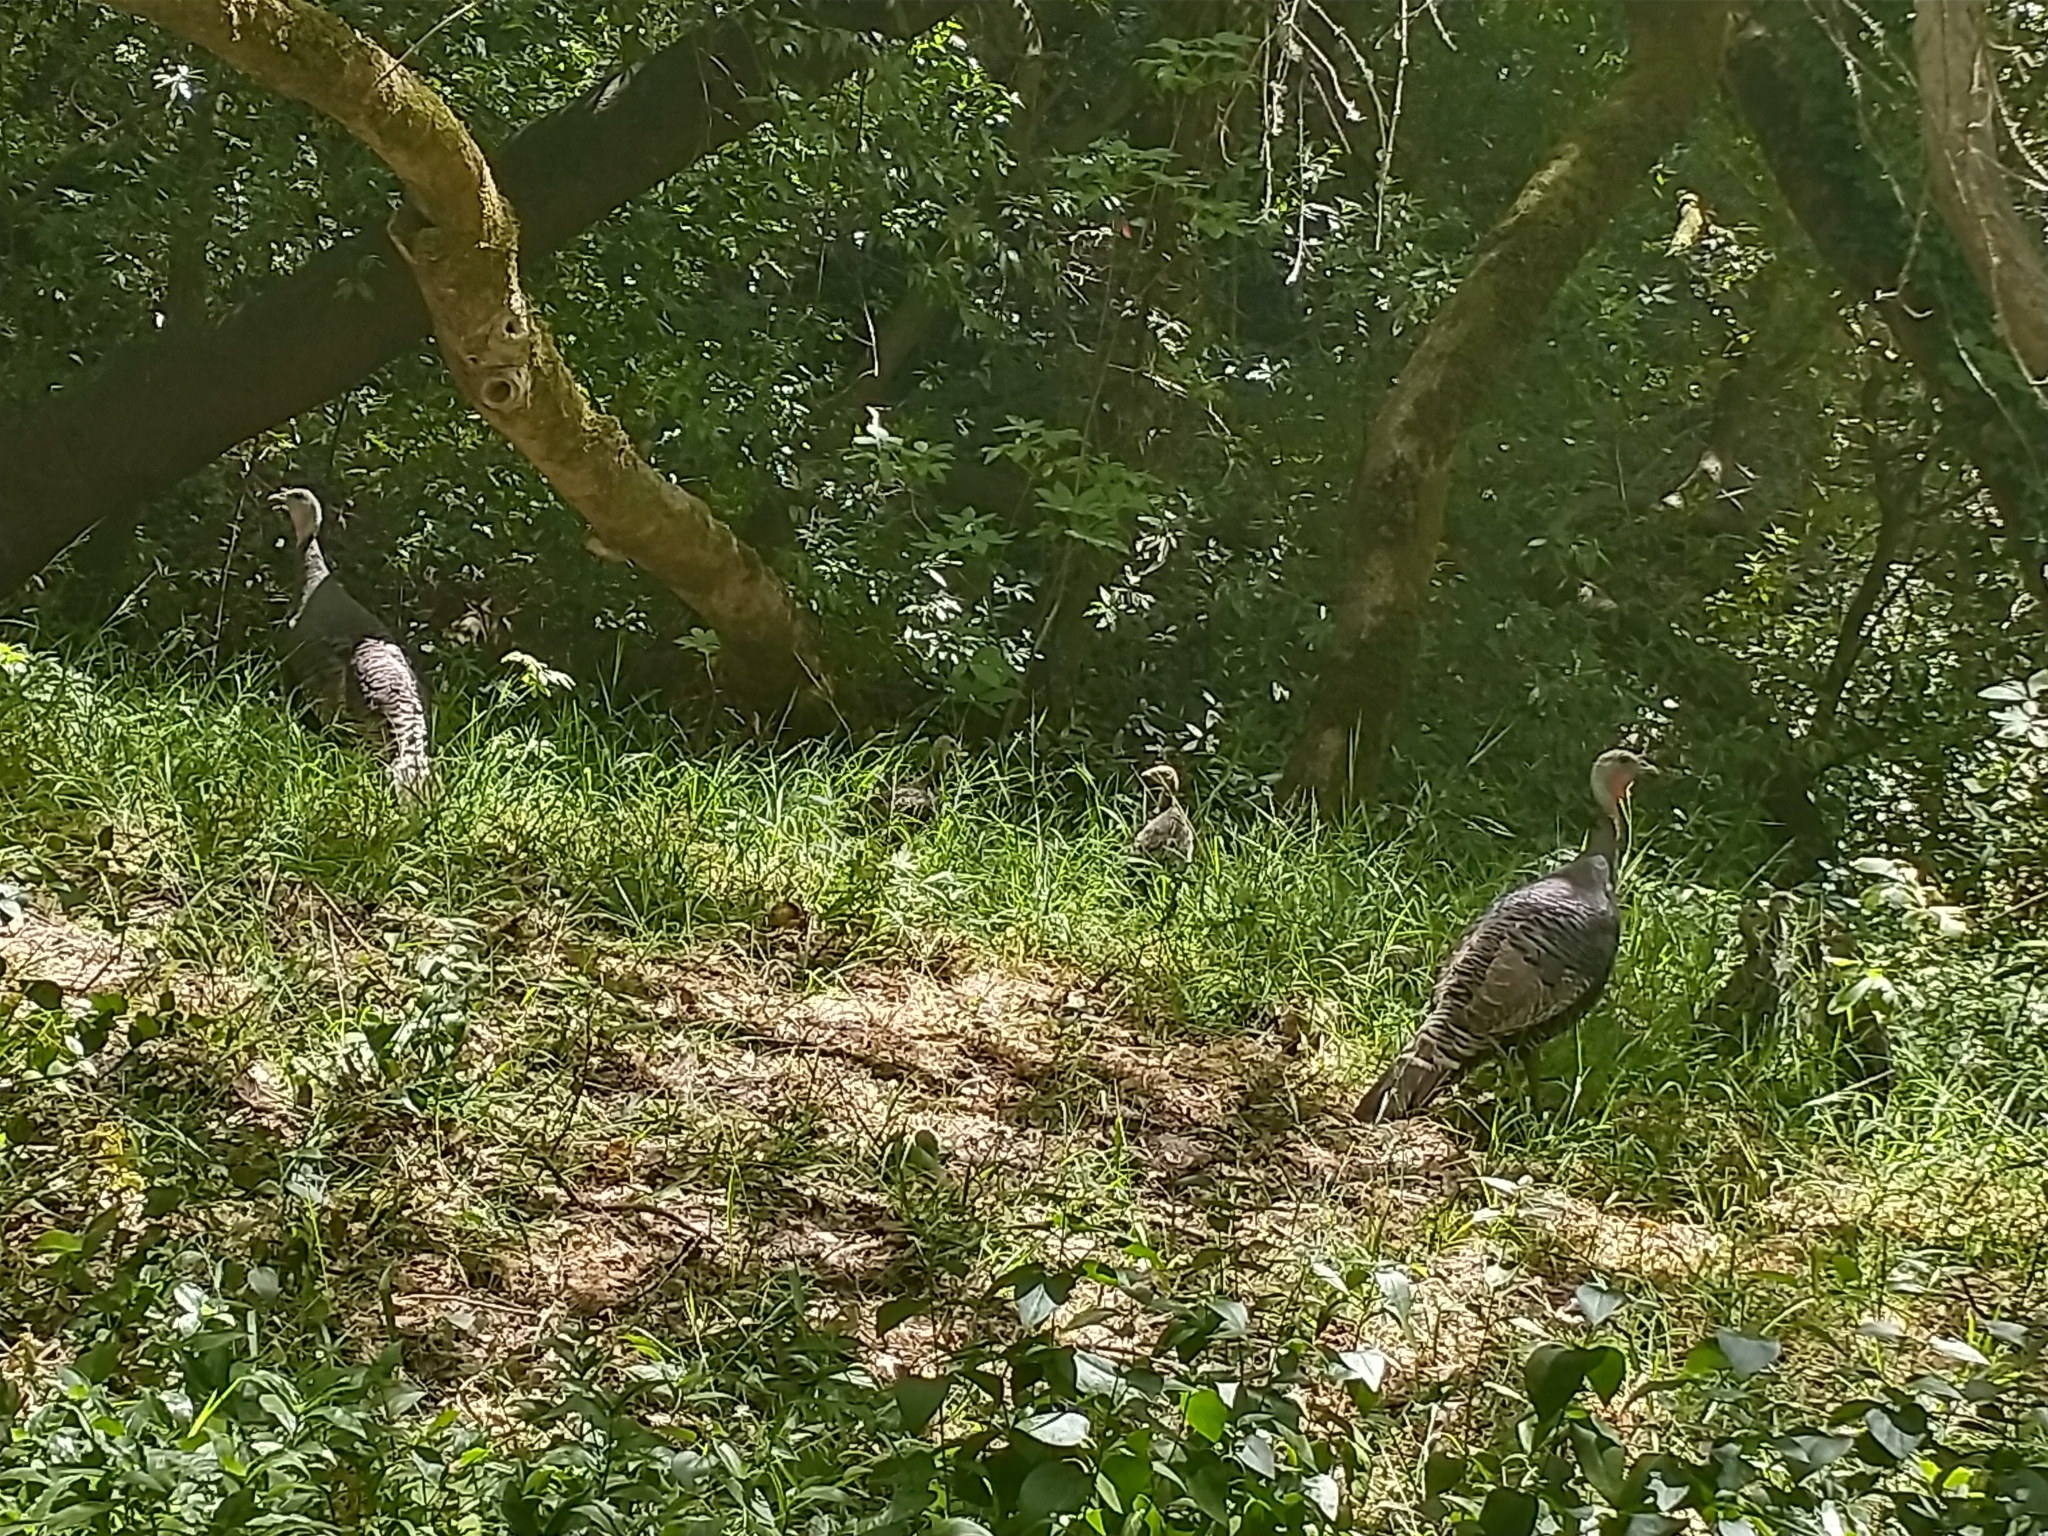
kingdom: Animalia
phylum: Chordata
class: Aves
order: Galliformes
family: Phasianidae
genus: Meleagris
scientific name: Meleagris gallopavo
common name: Wild turkey
